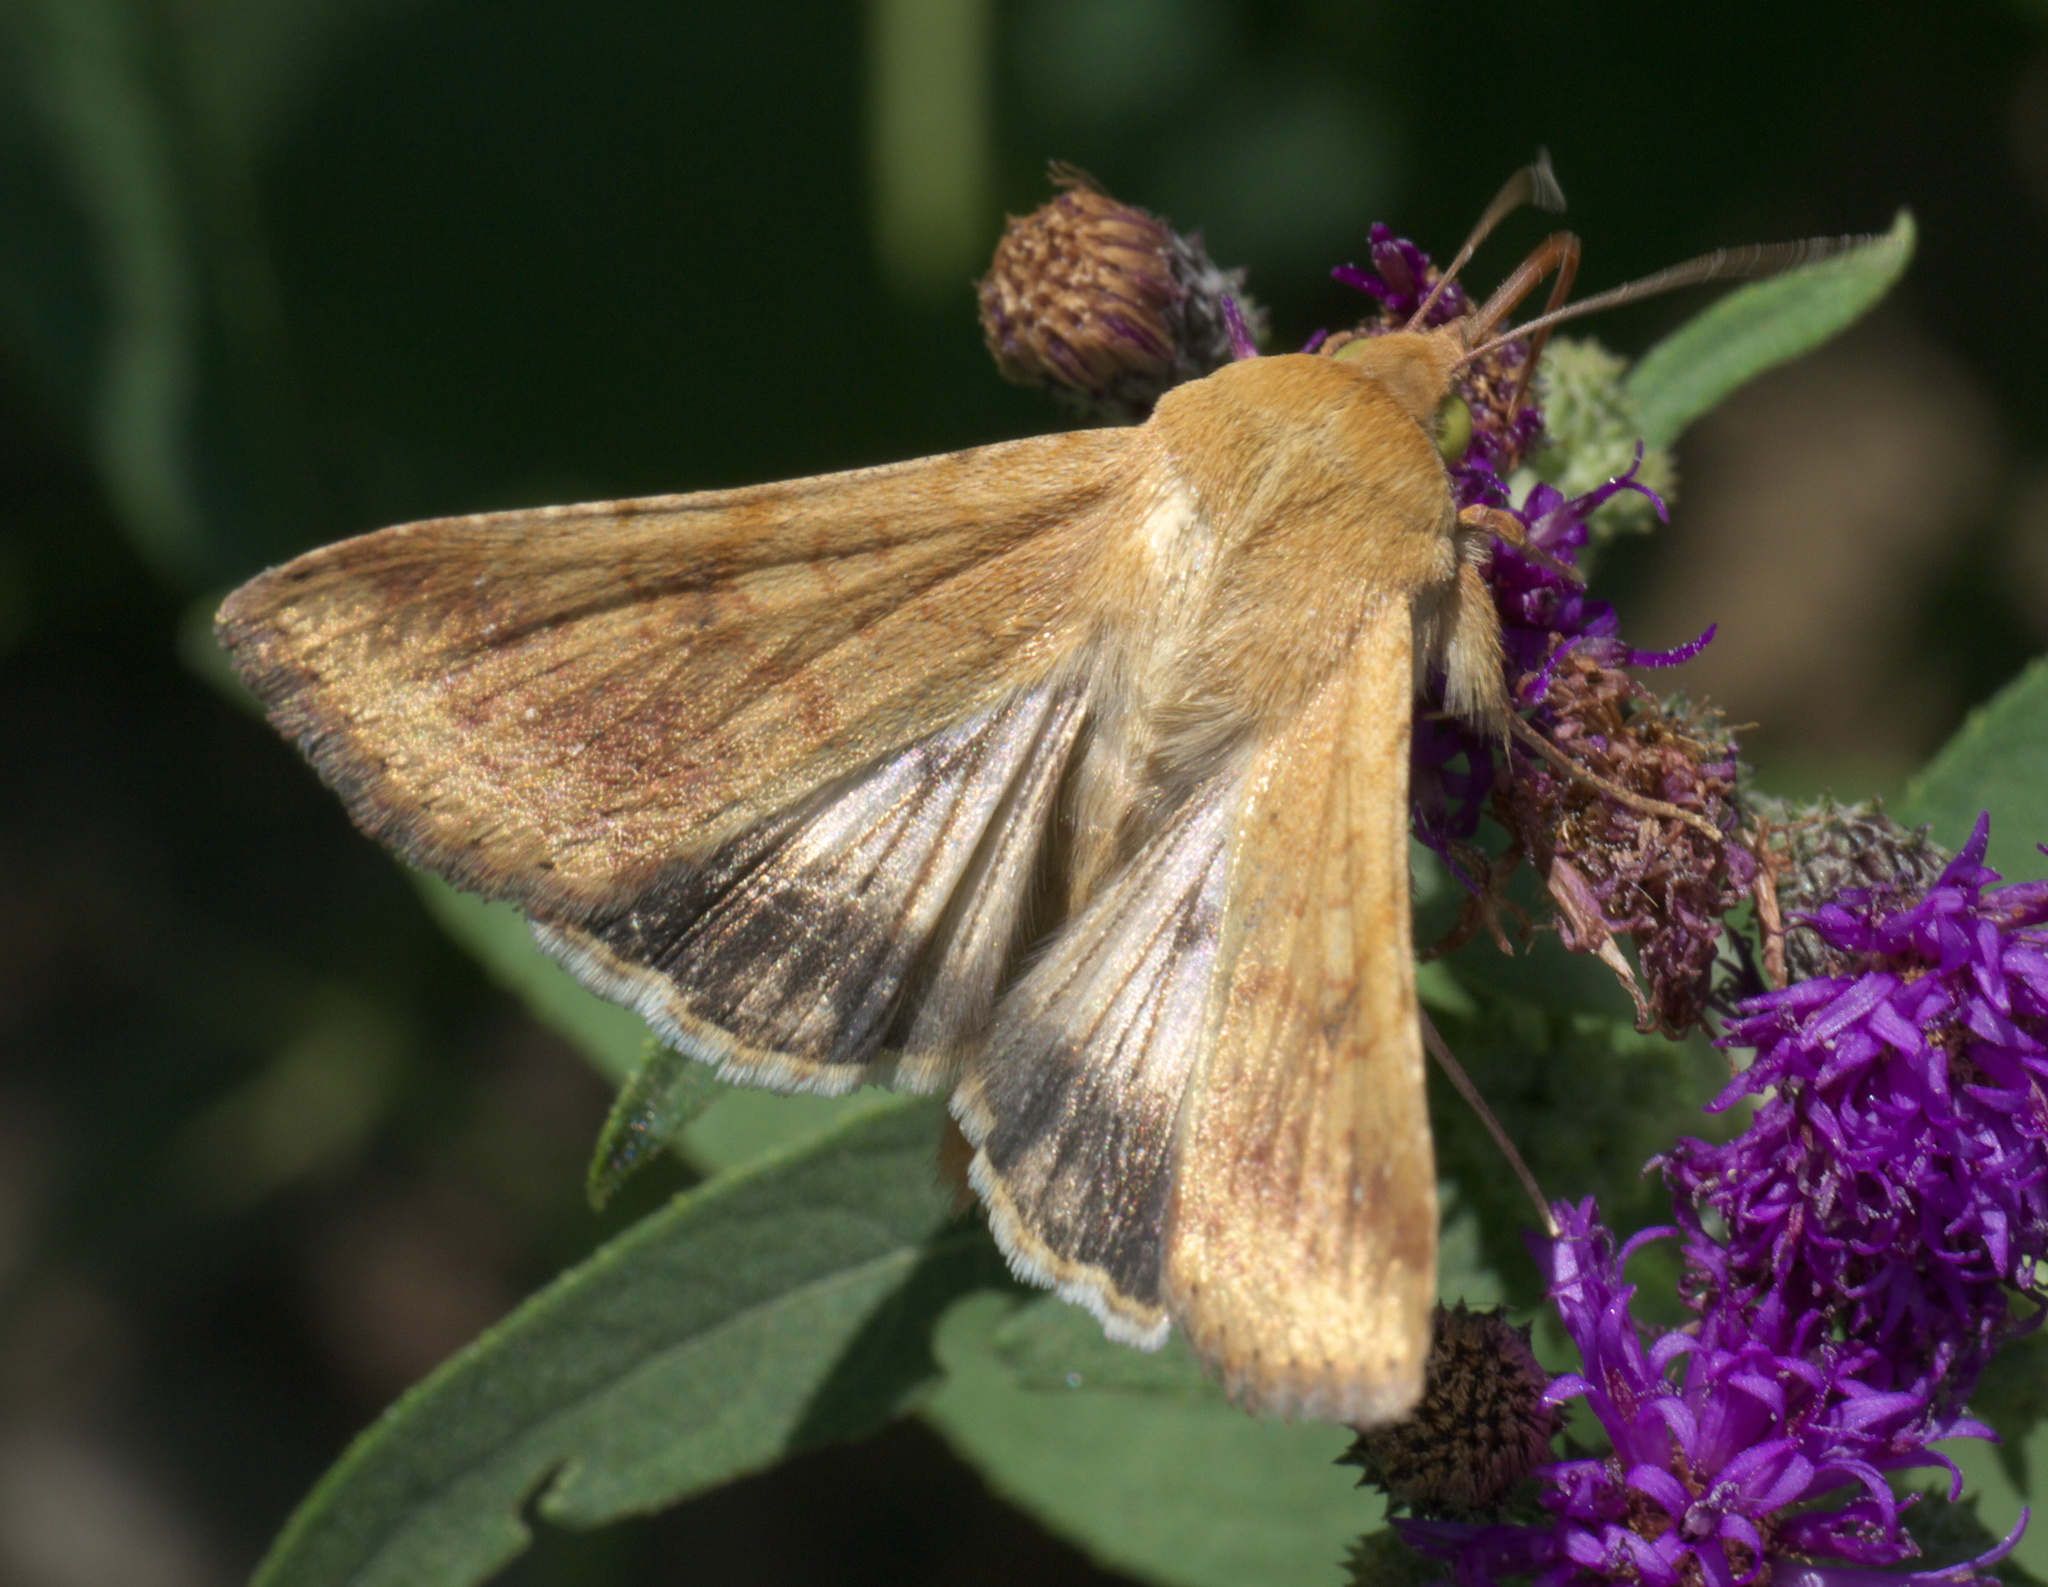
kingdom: Animalia
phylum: Arthropoda
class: Insecta
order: Lepidoptera
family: Noctuidae
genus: Helicoverpa
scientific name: Helicoverpa zea
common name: Bollworm
